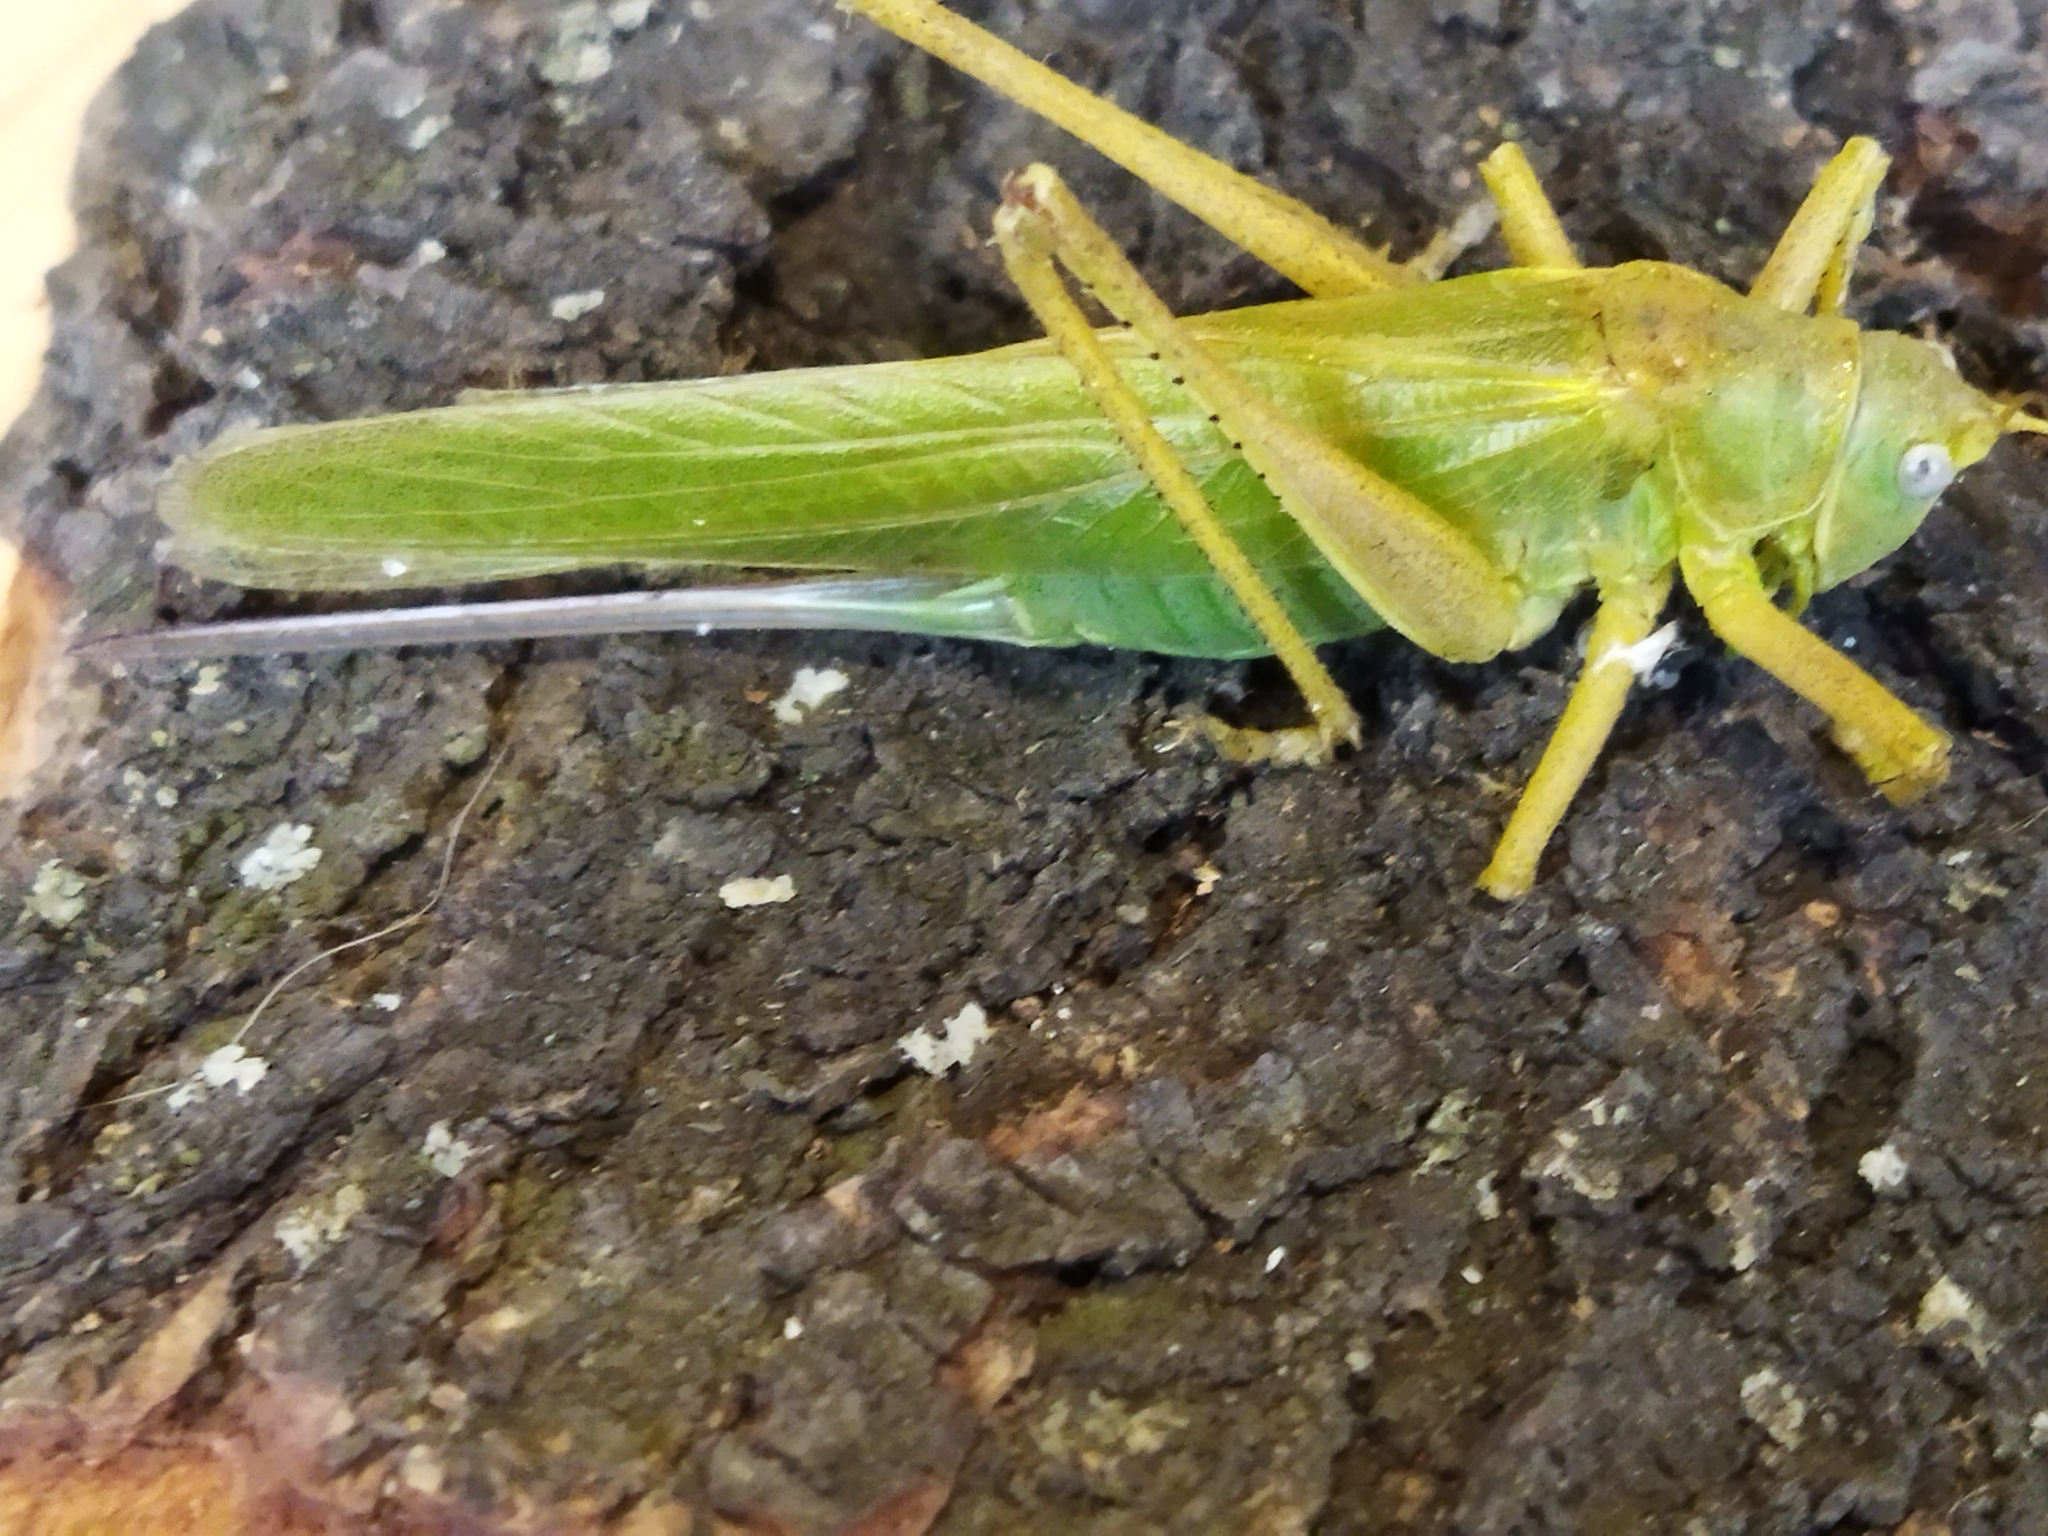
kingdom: Animalia
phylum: Arthropoda
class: Insecta
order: Orthoptera
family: Tettigoniidae
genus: Tettigonia
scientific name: Tettigonia caudata
